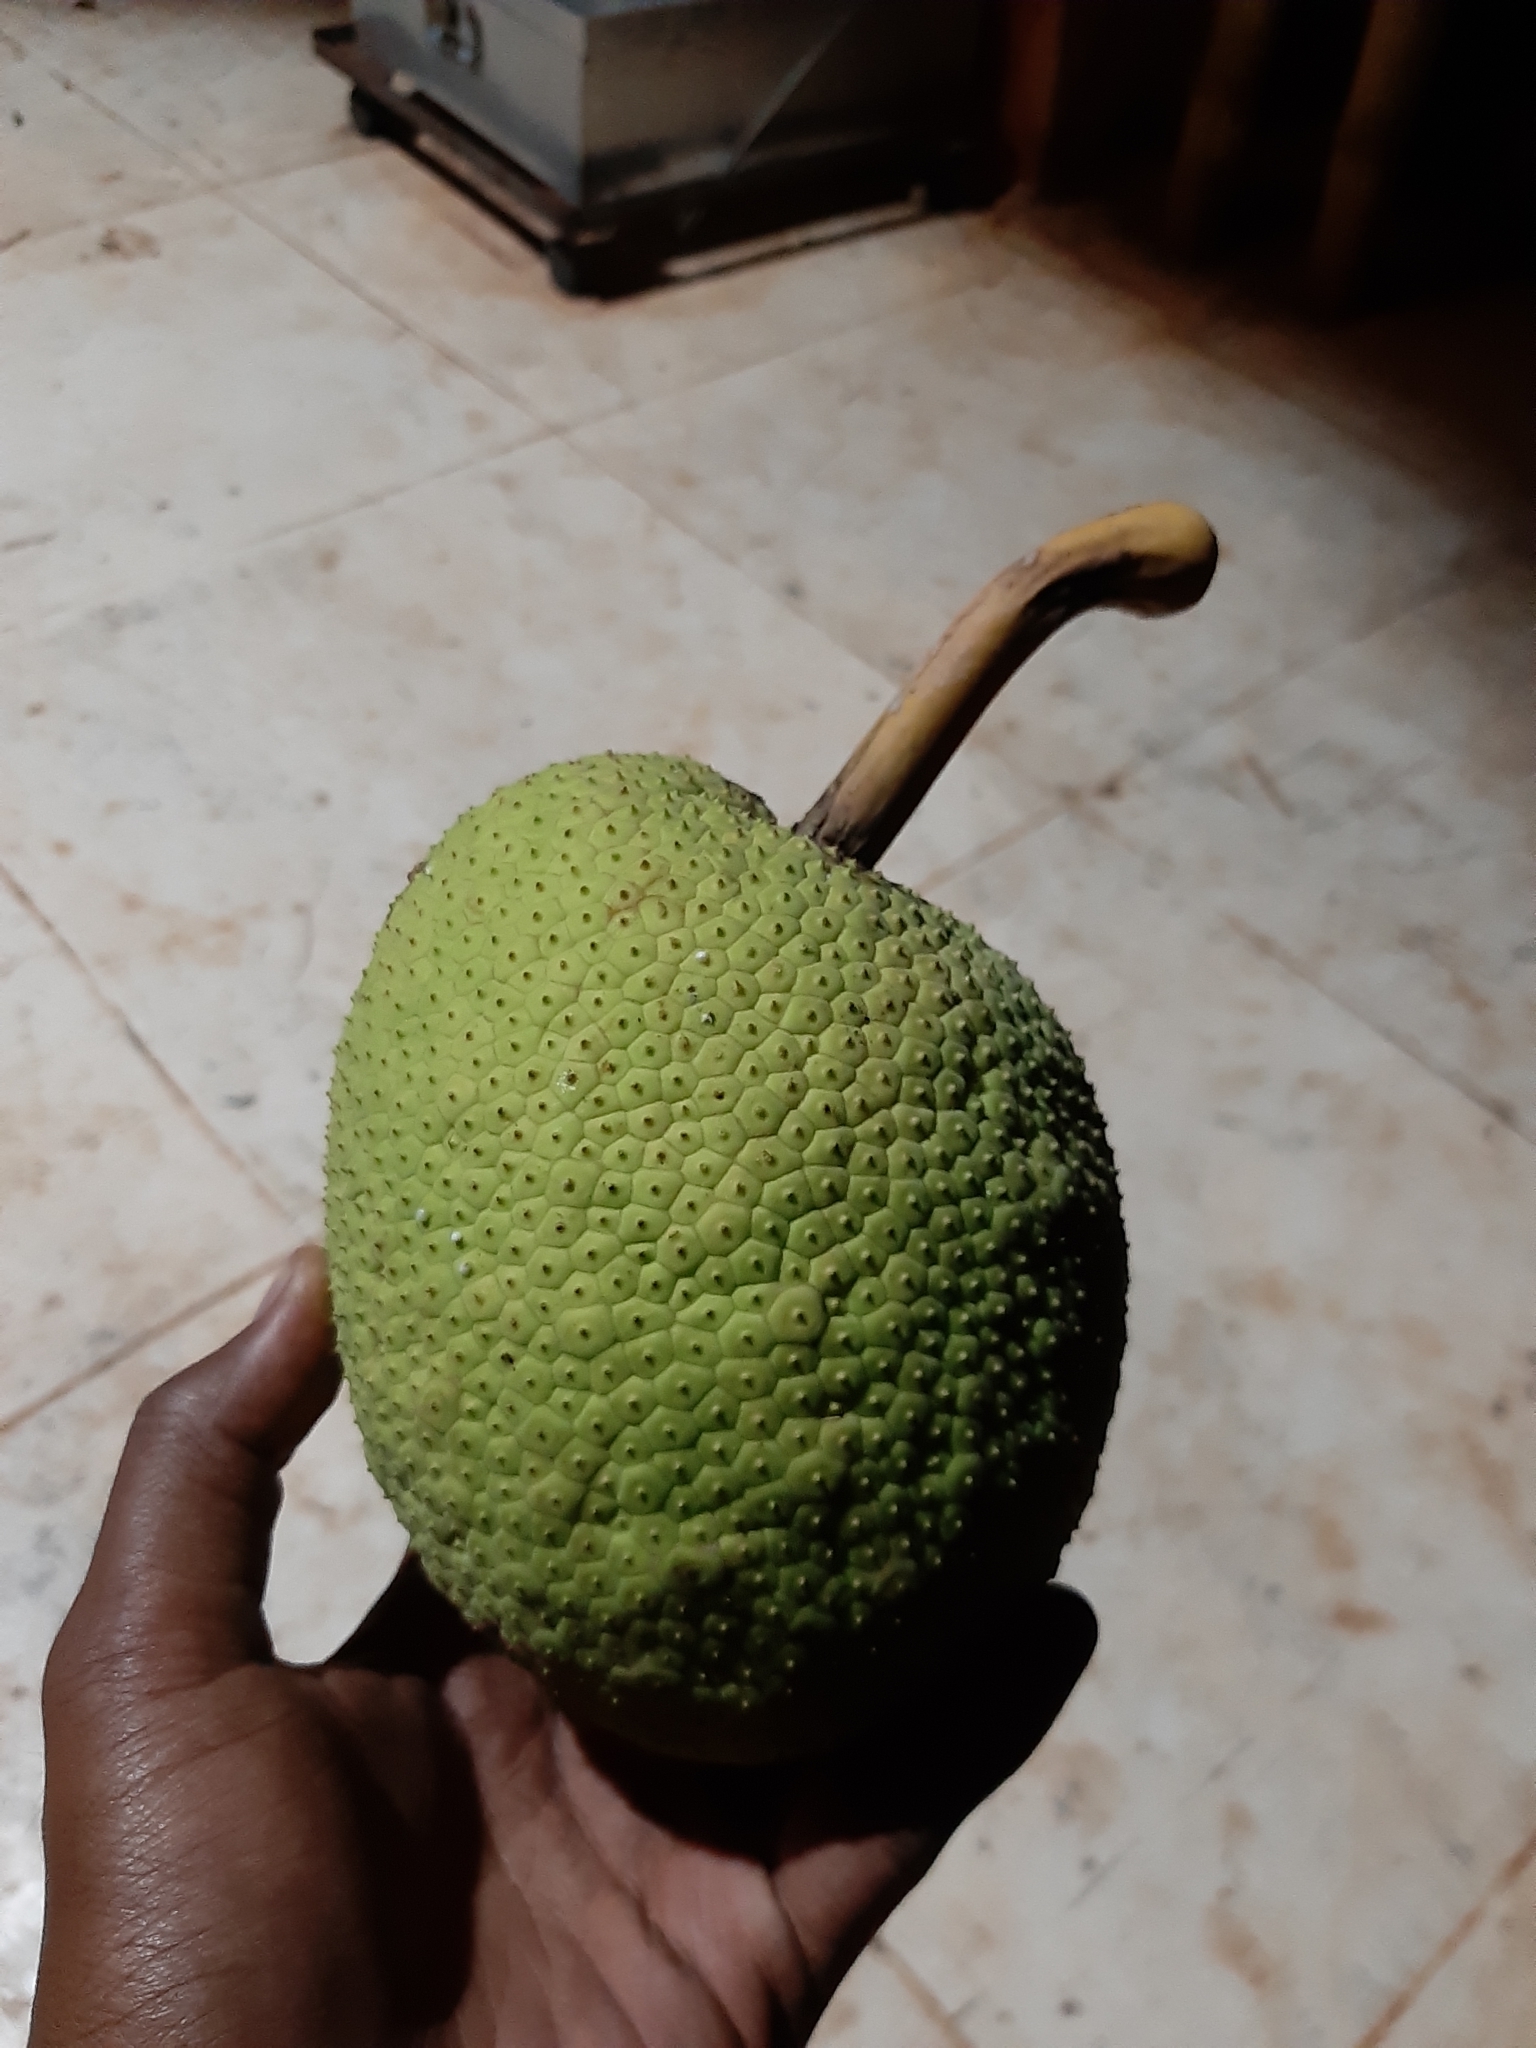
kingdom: Plantae
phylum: Tracheophyta
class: Magnoliopsida
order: Rosales
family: Moraceae
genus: Artocarpus
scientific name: Artocarpus altilis
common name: Breadfruit
